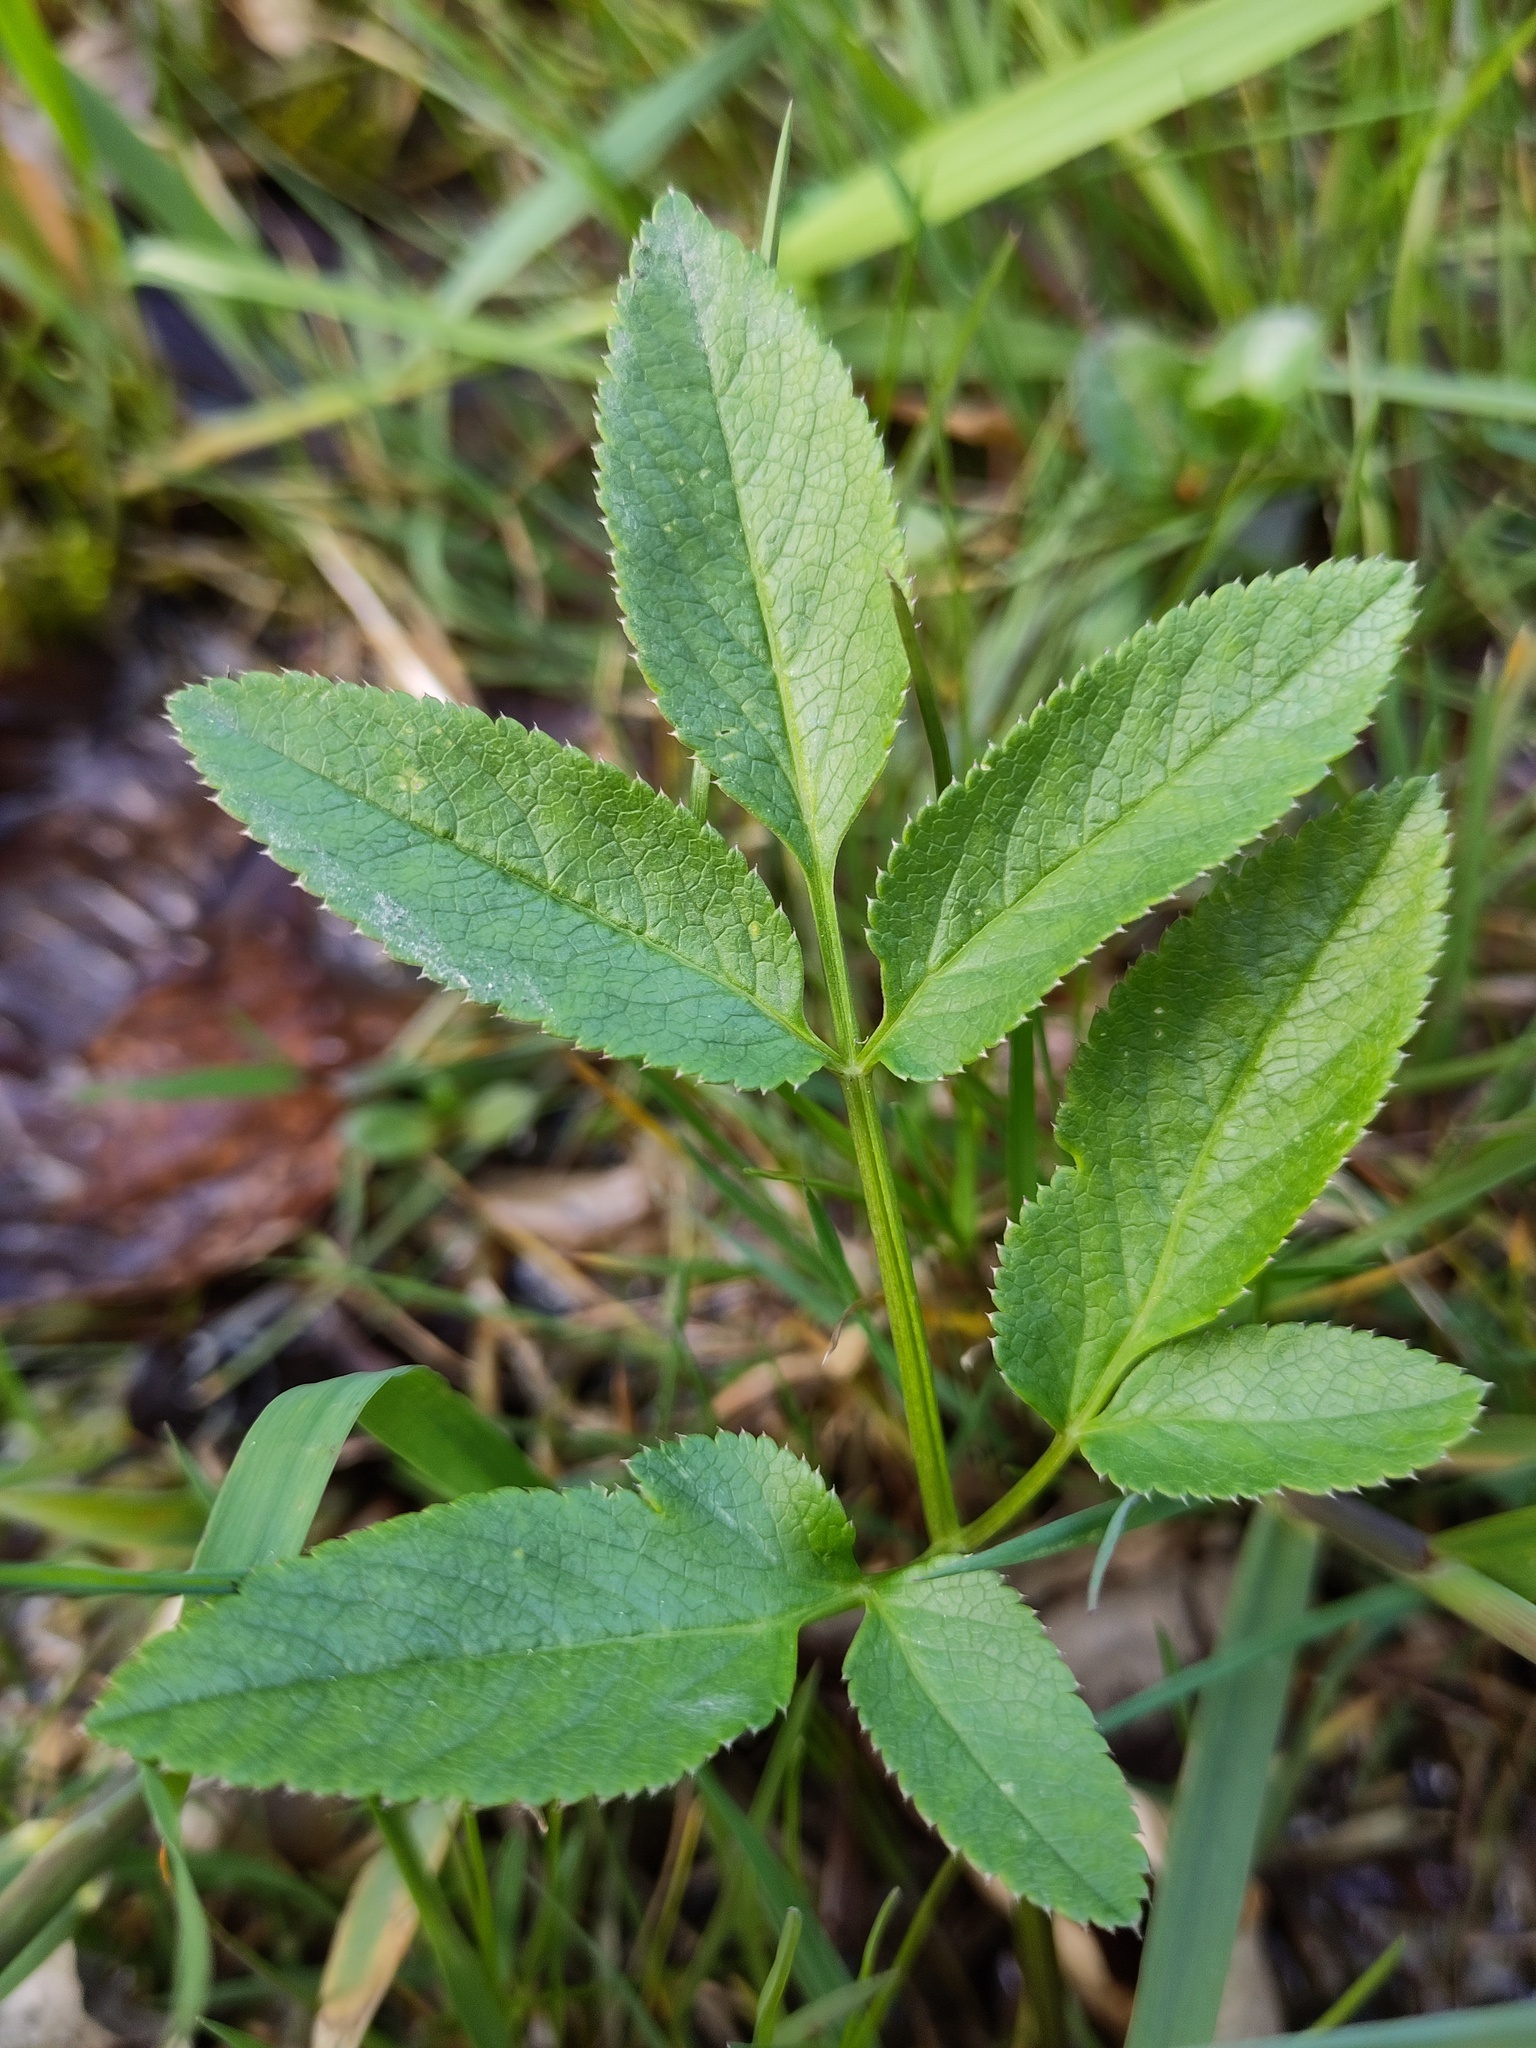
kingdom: Plantae
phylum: Tracheophyta
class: Magnoliopsida
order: Apiales
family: Apiaceae
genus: Angelica
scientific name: Angelica sylvestris
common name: Wild angelica
